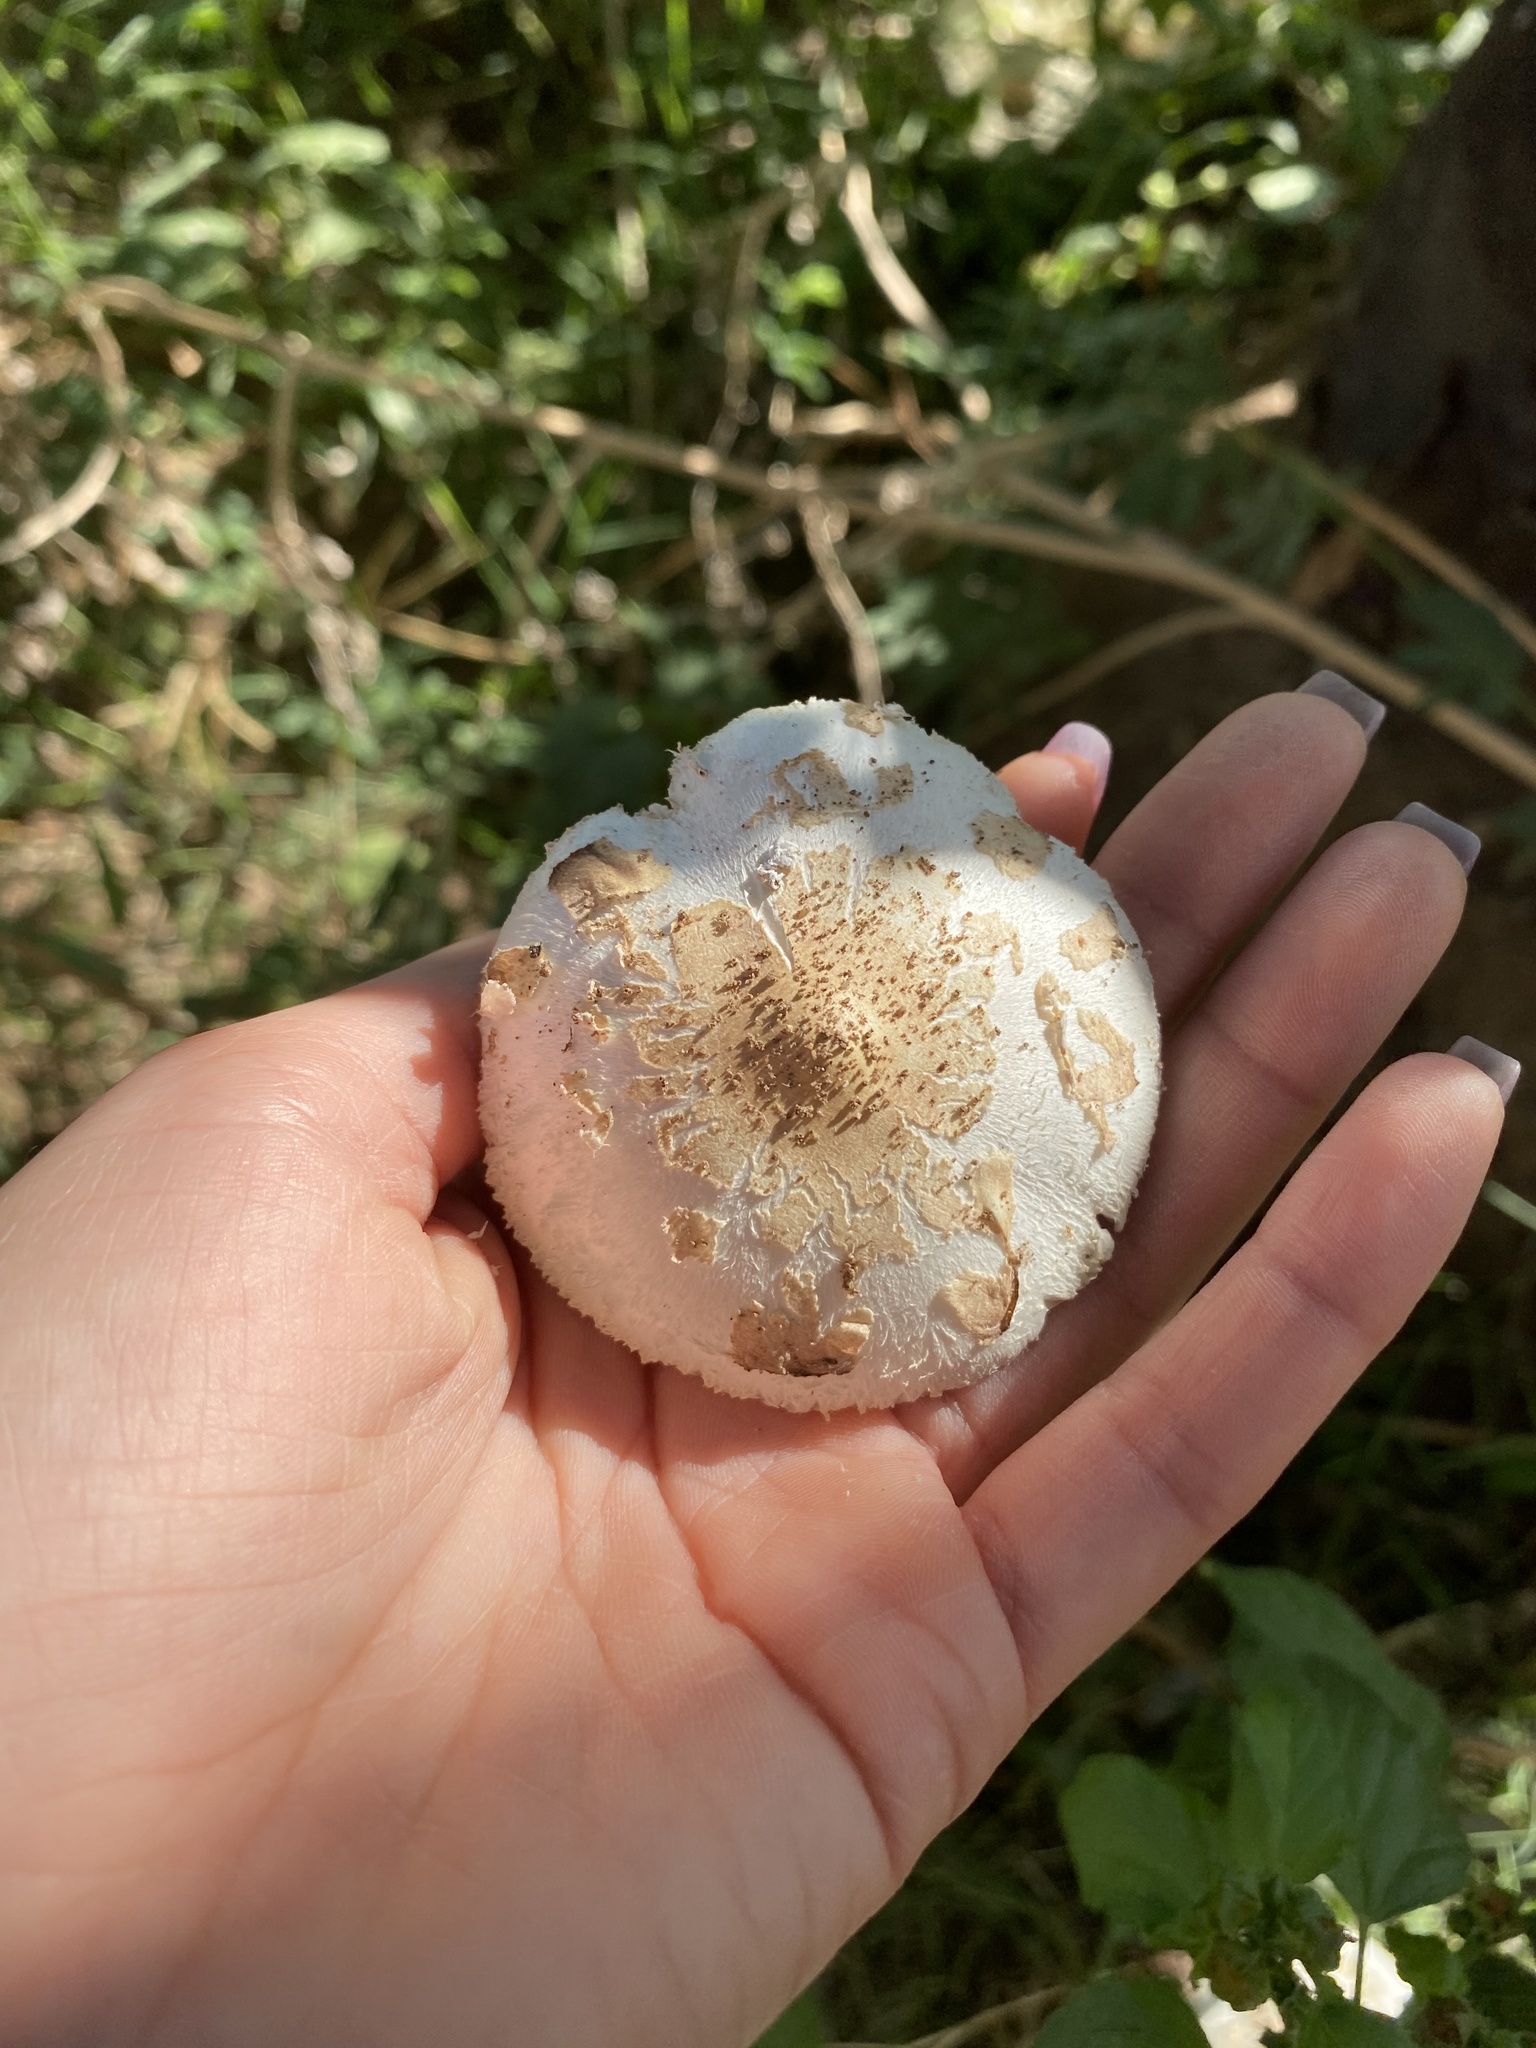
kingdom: Fungi
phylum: Basidiomycota
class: Agaricomycetes
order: Agaricales
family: Agaricaceae
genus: Chlorophyllum
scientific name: Chlorophyllum molybdites
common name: False parasol
